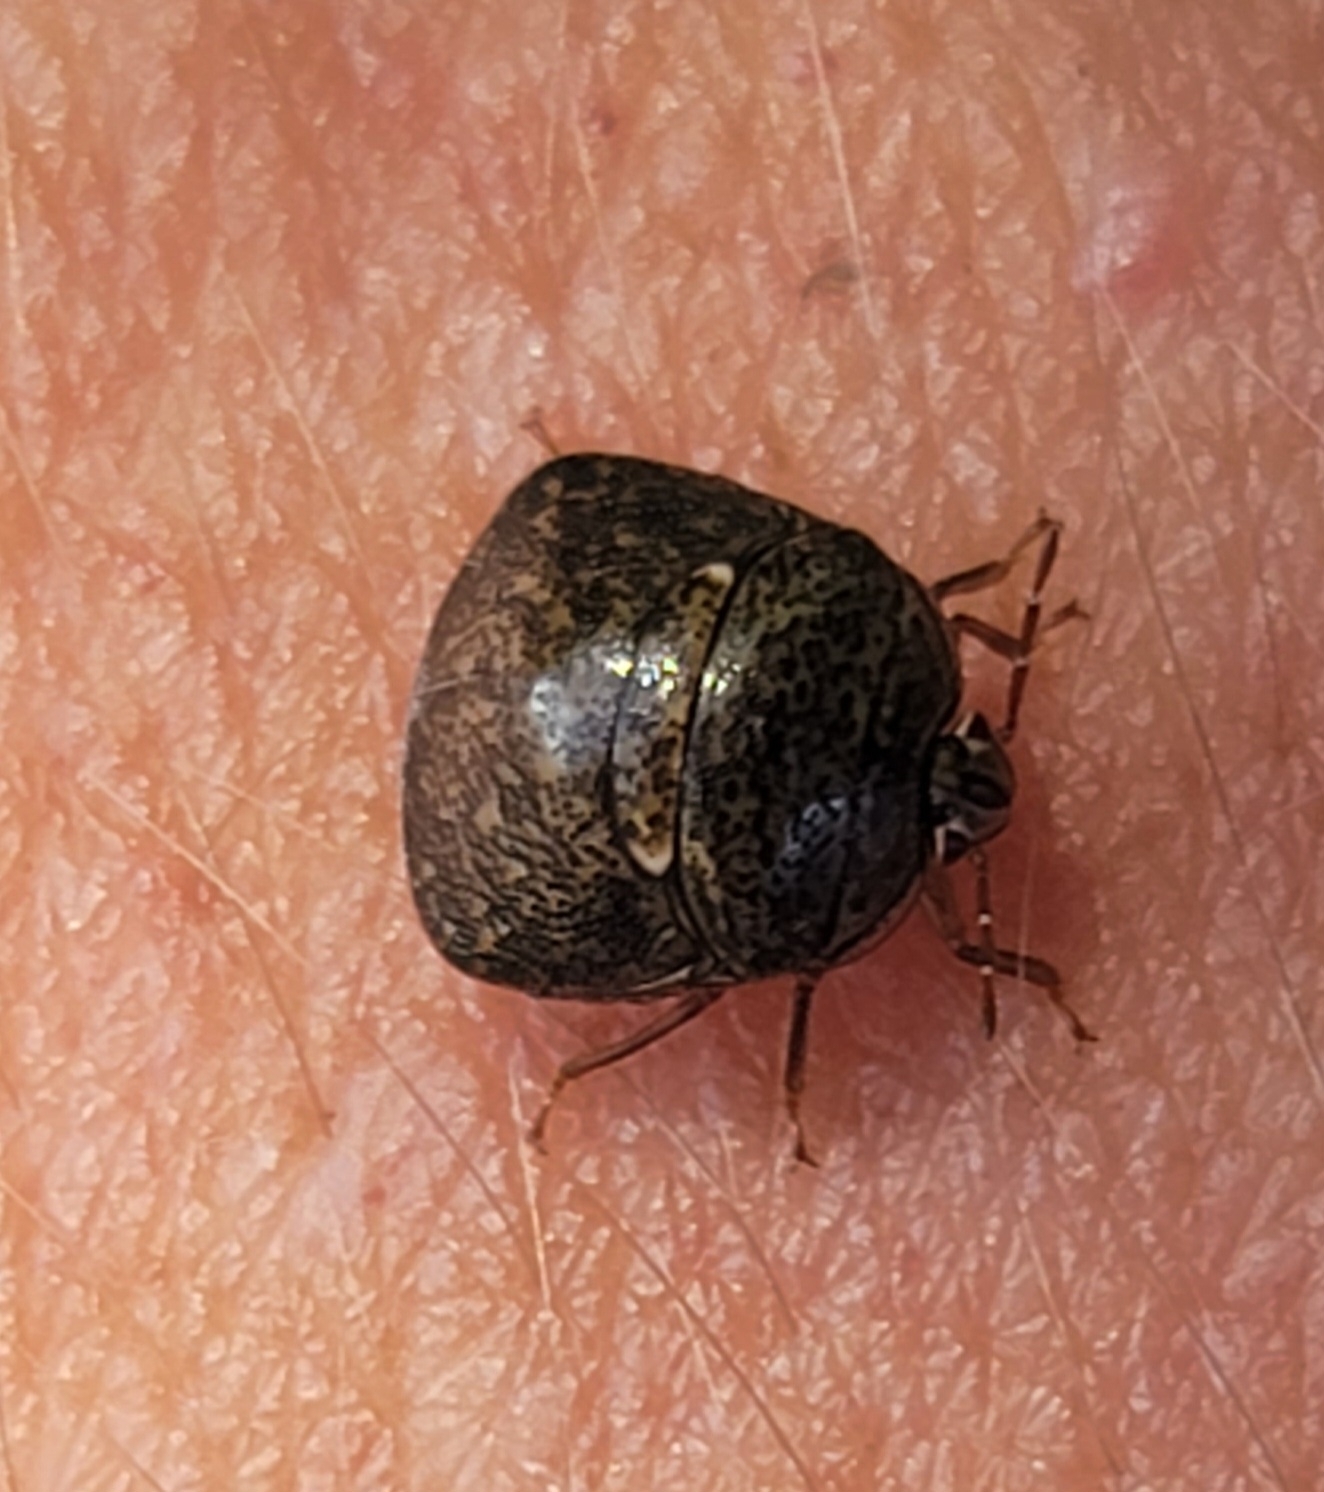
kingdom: Animalia
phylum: Arthropoda
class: Insecta
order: Hemiptera
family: Plataspidae
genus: Megacopta
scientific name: Megacopta cribraria
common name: Bean plataspid
